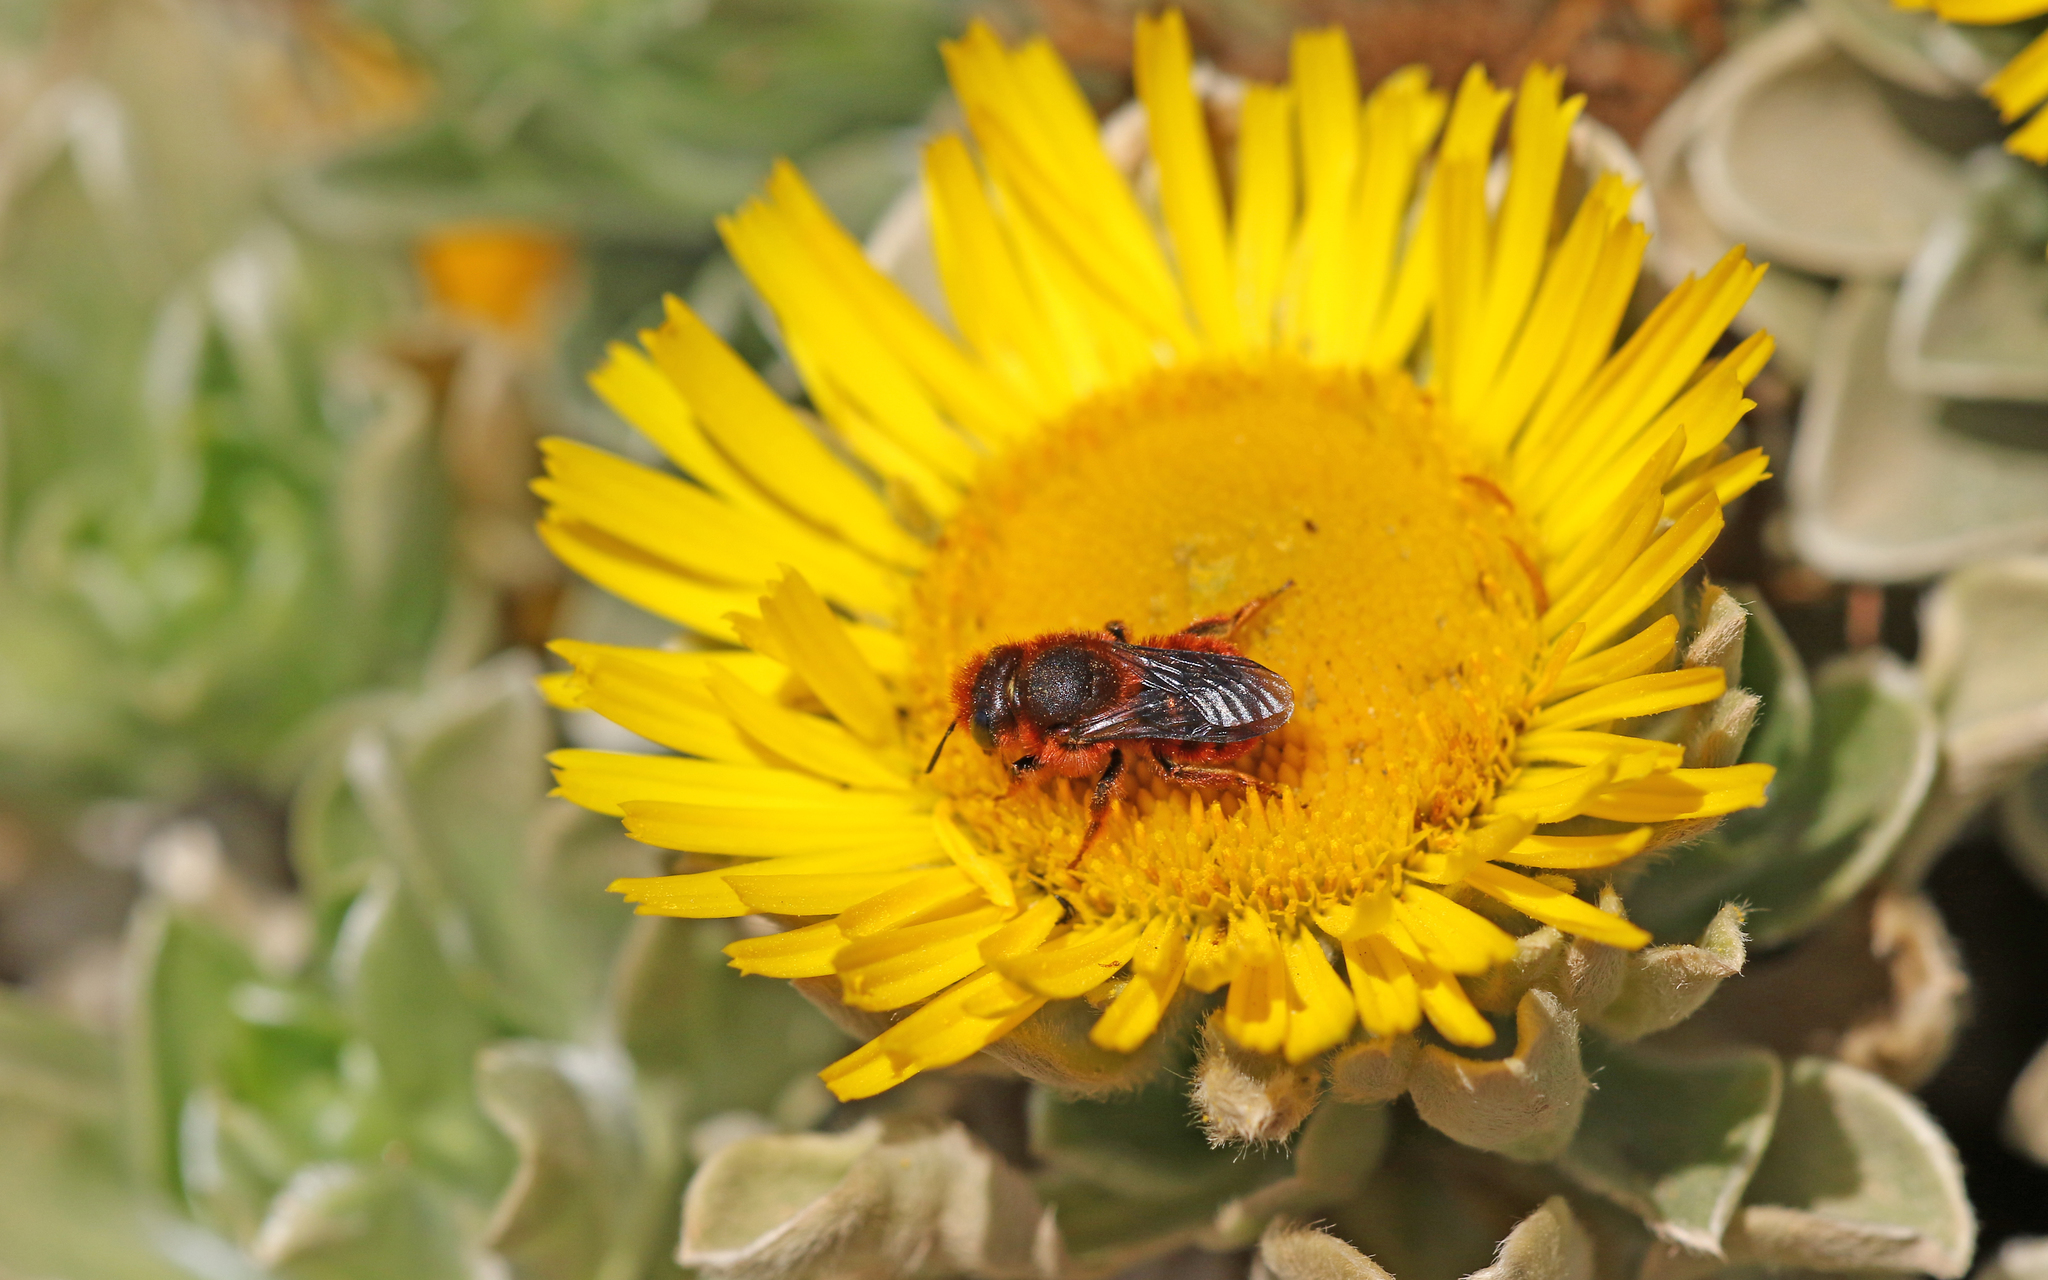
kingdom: Animalia
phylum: Arthropoda
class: Insecta
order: Hymenoptera
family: Megachilidae
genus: Osmia
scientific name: Osmia cinnabarina
